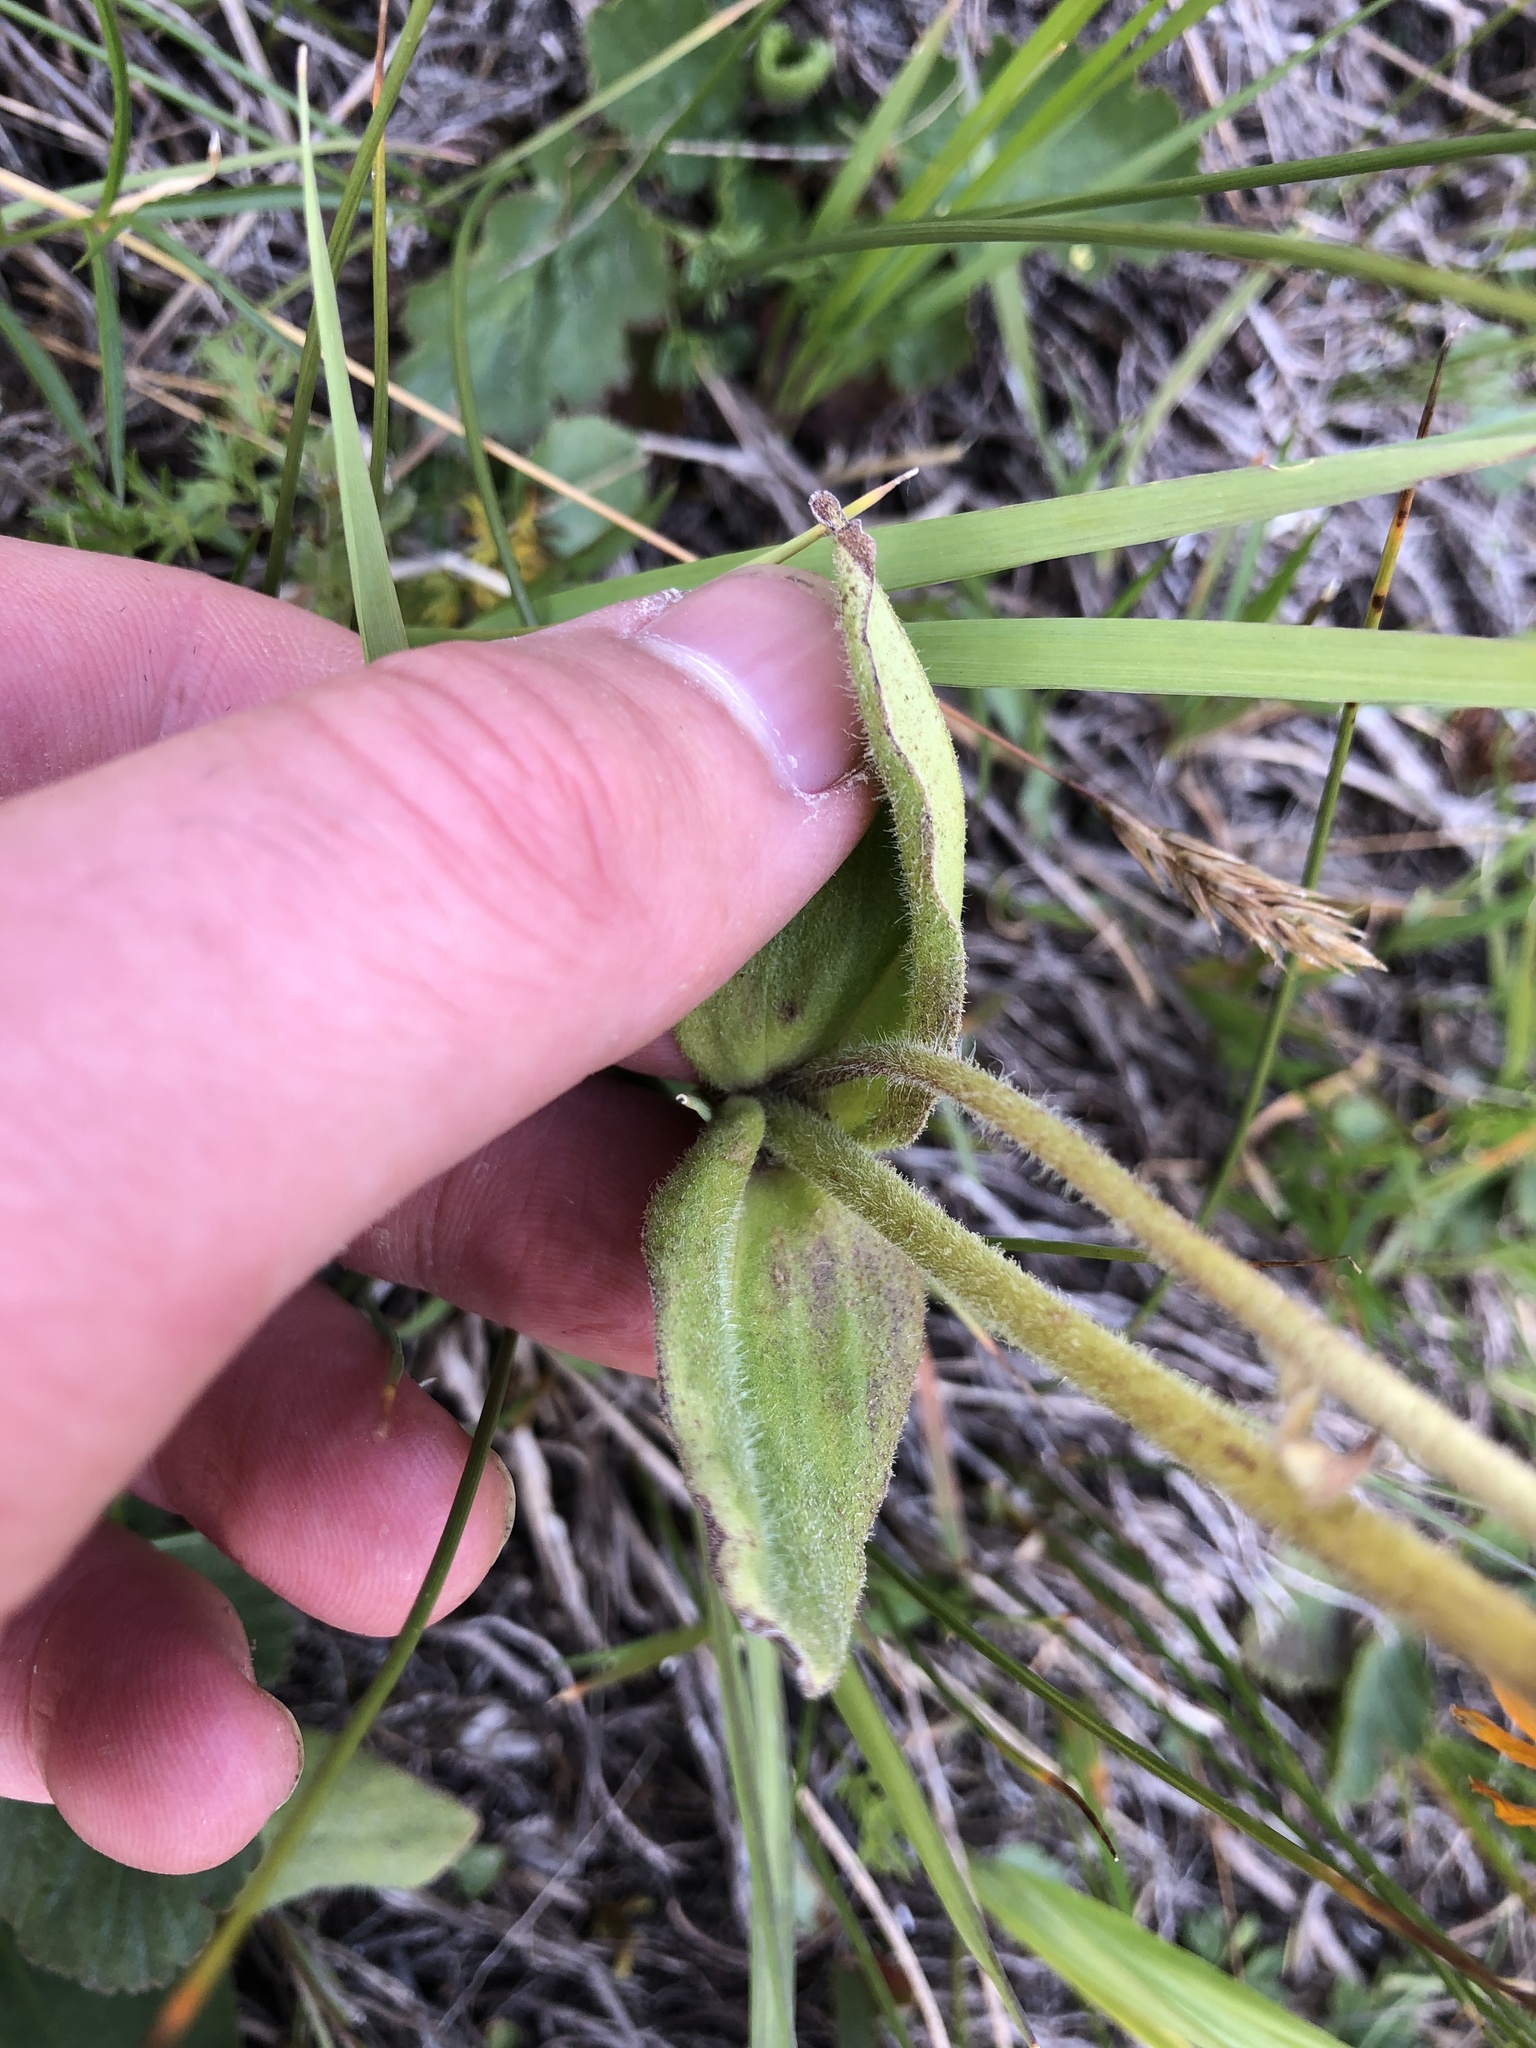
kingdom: Plantae
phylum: Tracheophyta
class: Magnoliopsida
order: Asterales
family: Asteraceae
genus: Arnica
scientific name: Arnica montana
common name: Leopard's bane
